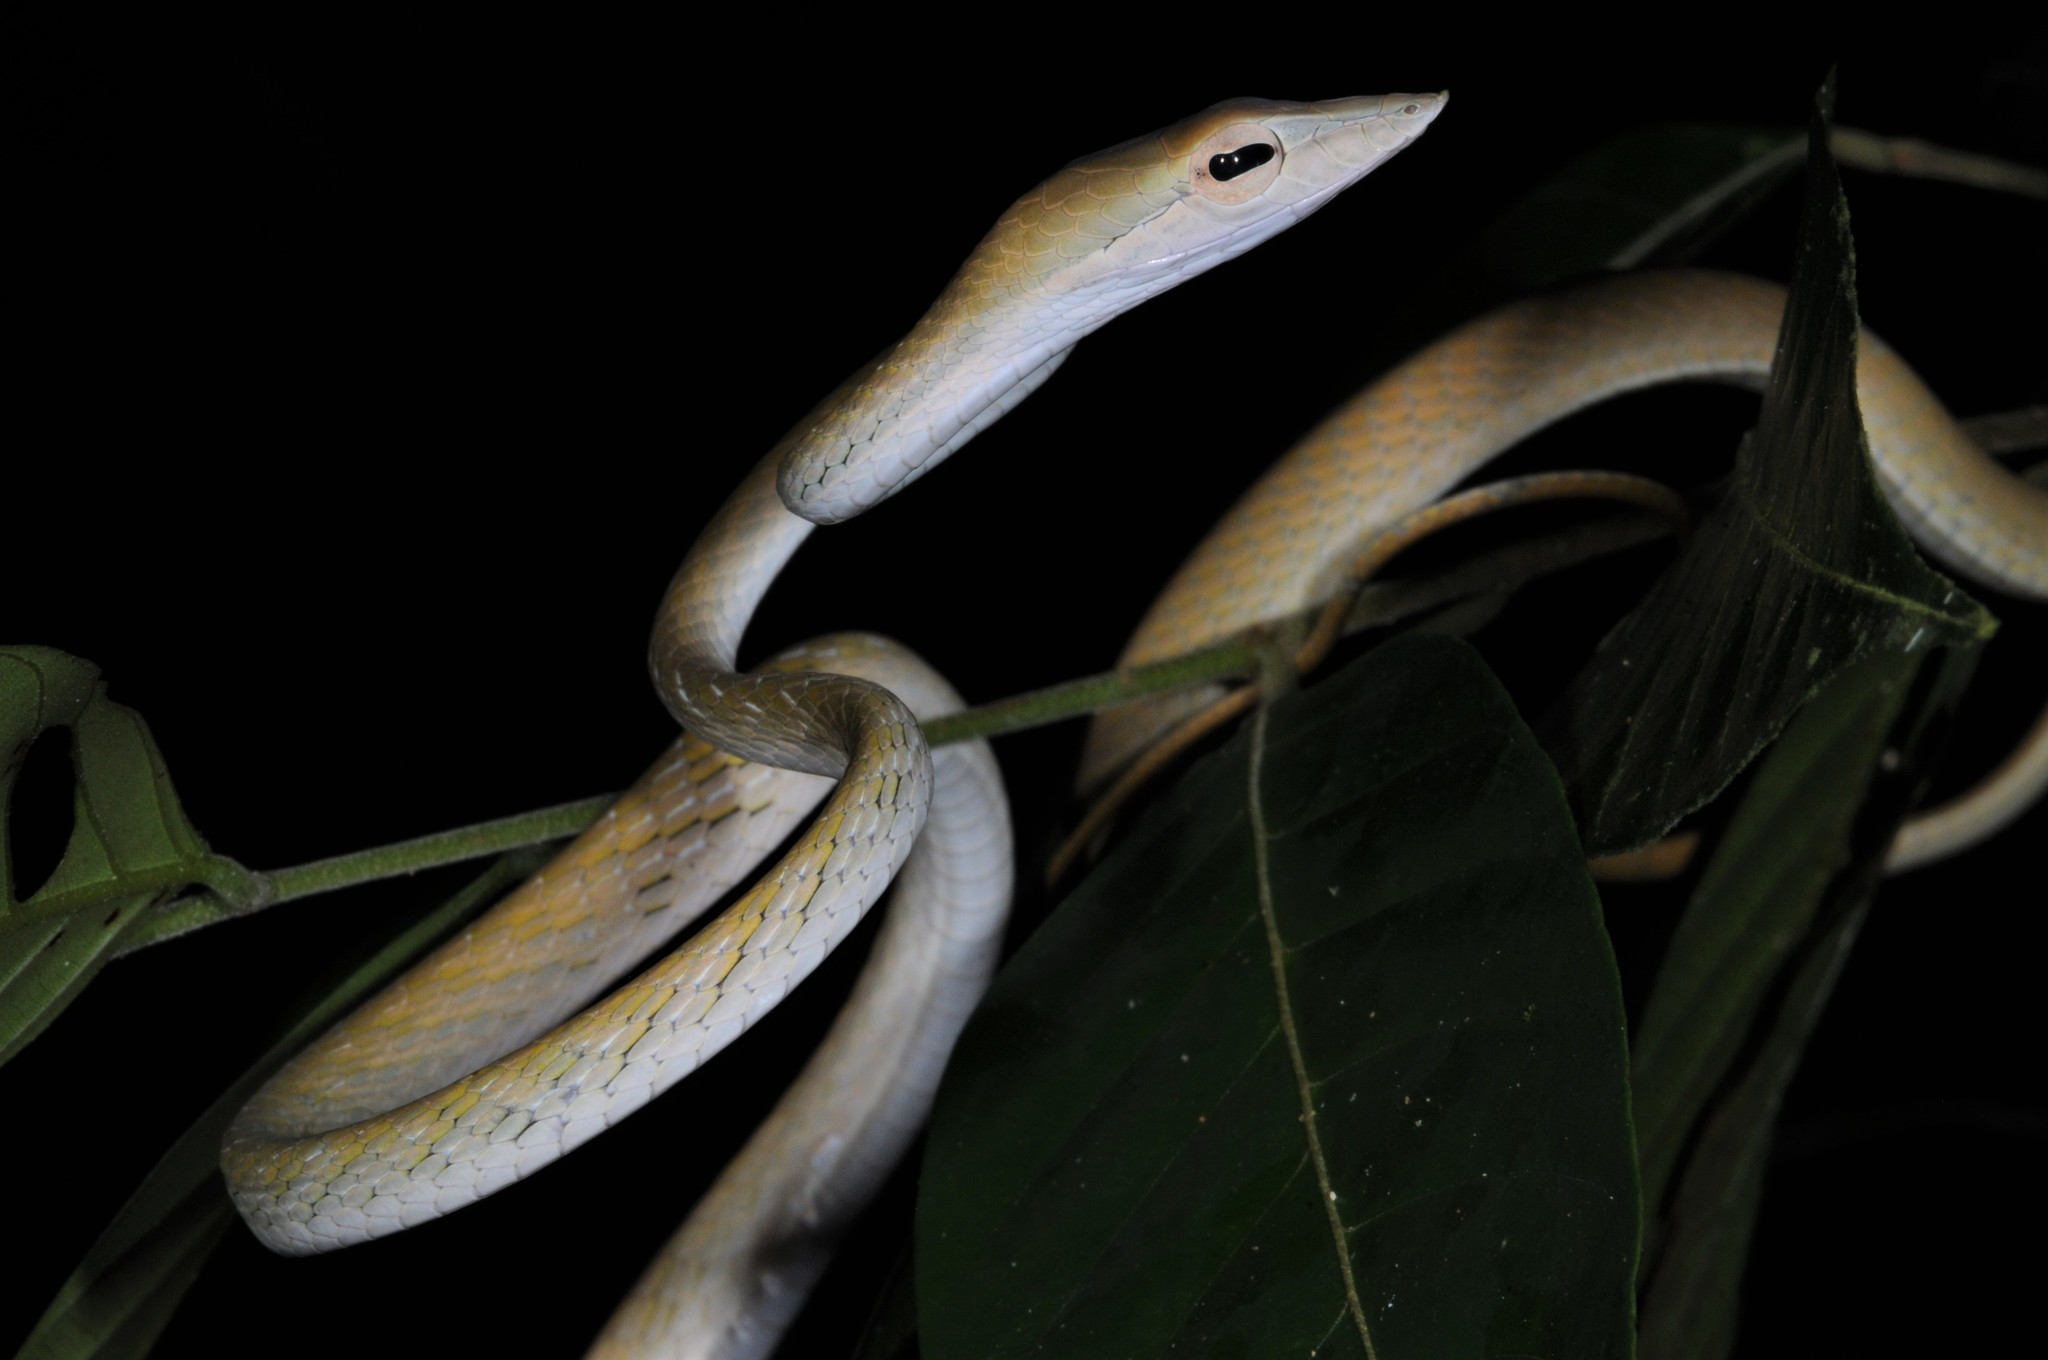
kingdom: Animalia
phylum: Chordata
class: Squamata
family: Colubridae
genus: Ahaetulla
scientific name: Ahaetulla prasina
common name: Oriental whip snake
